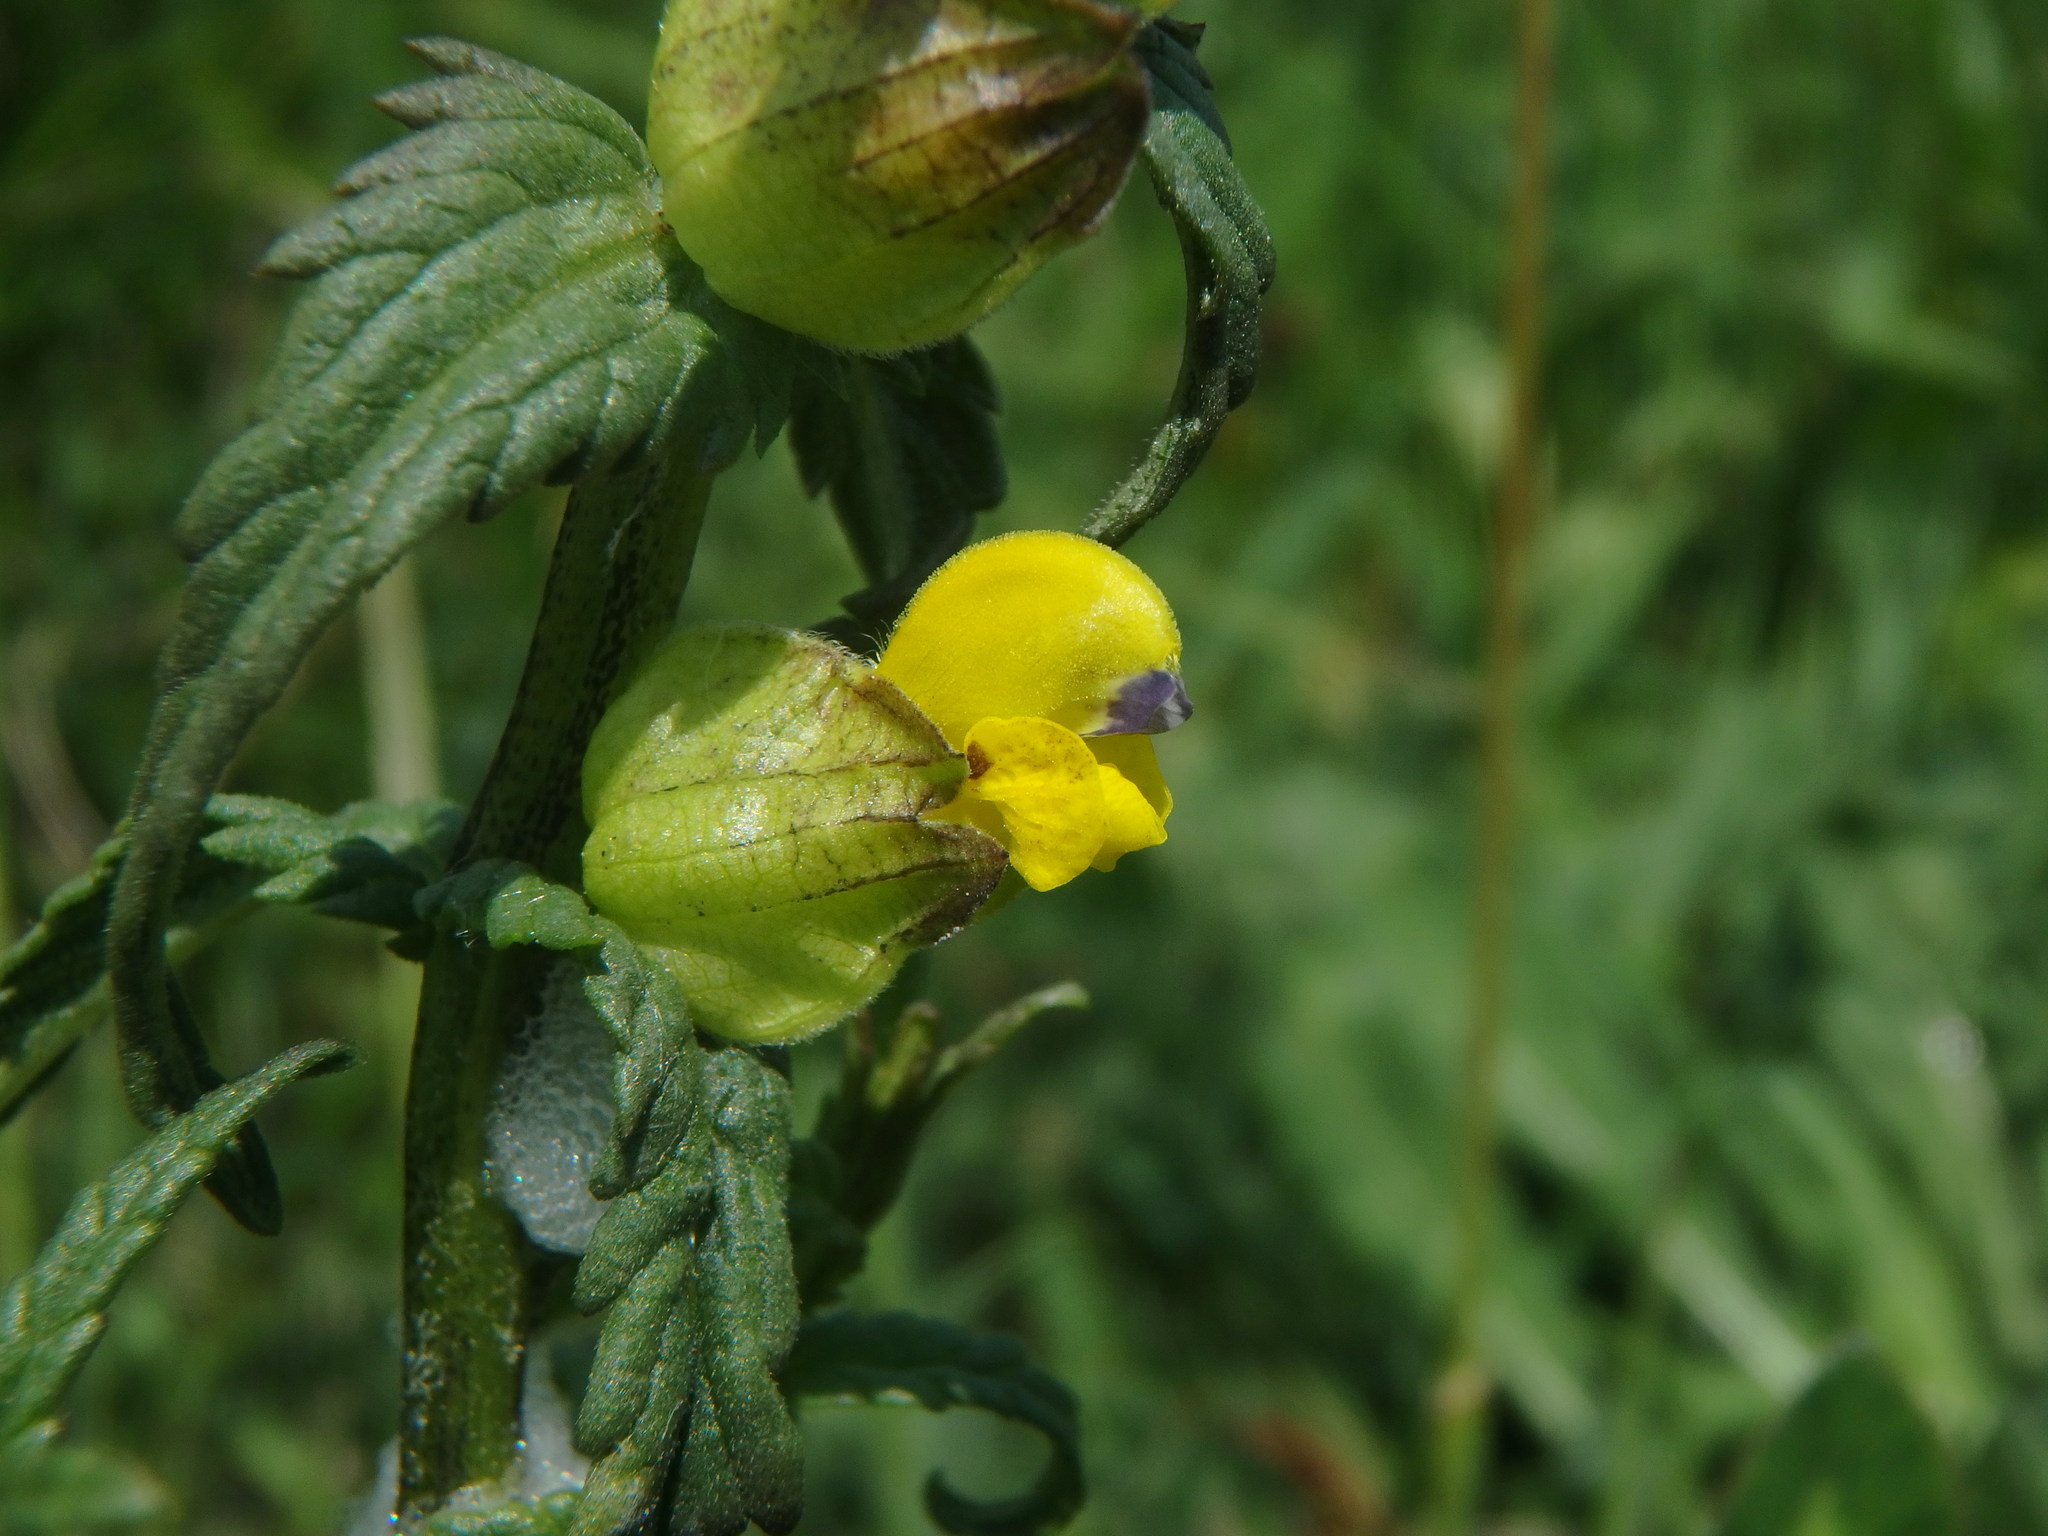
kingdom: Plantae
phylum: Tracheophyta
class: Magnoliopsida
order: Lamiales
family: Orobanchaceae
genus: Rhinanthus
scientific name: Rhinanthus minor
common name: Yellow-rattle
